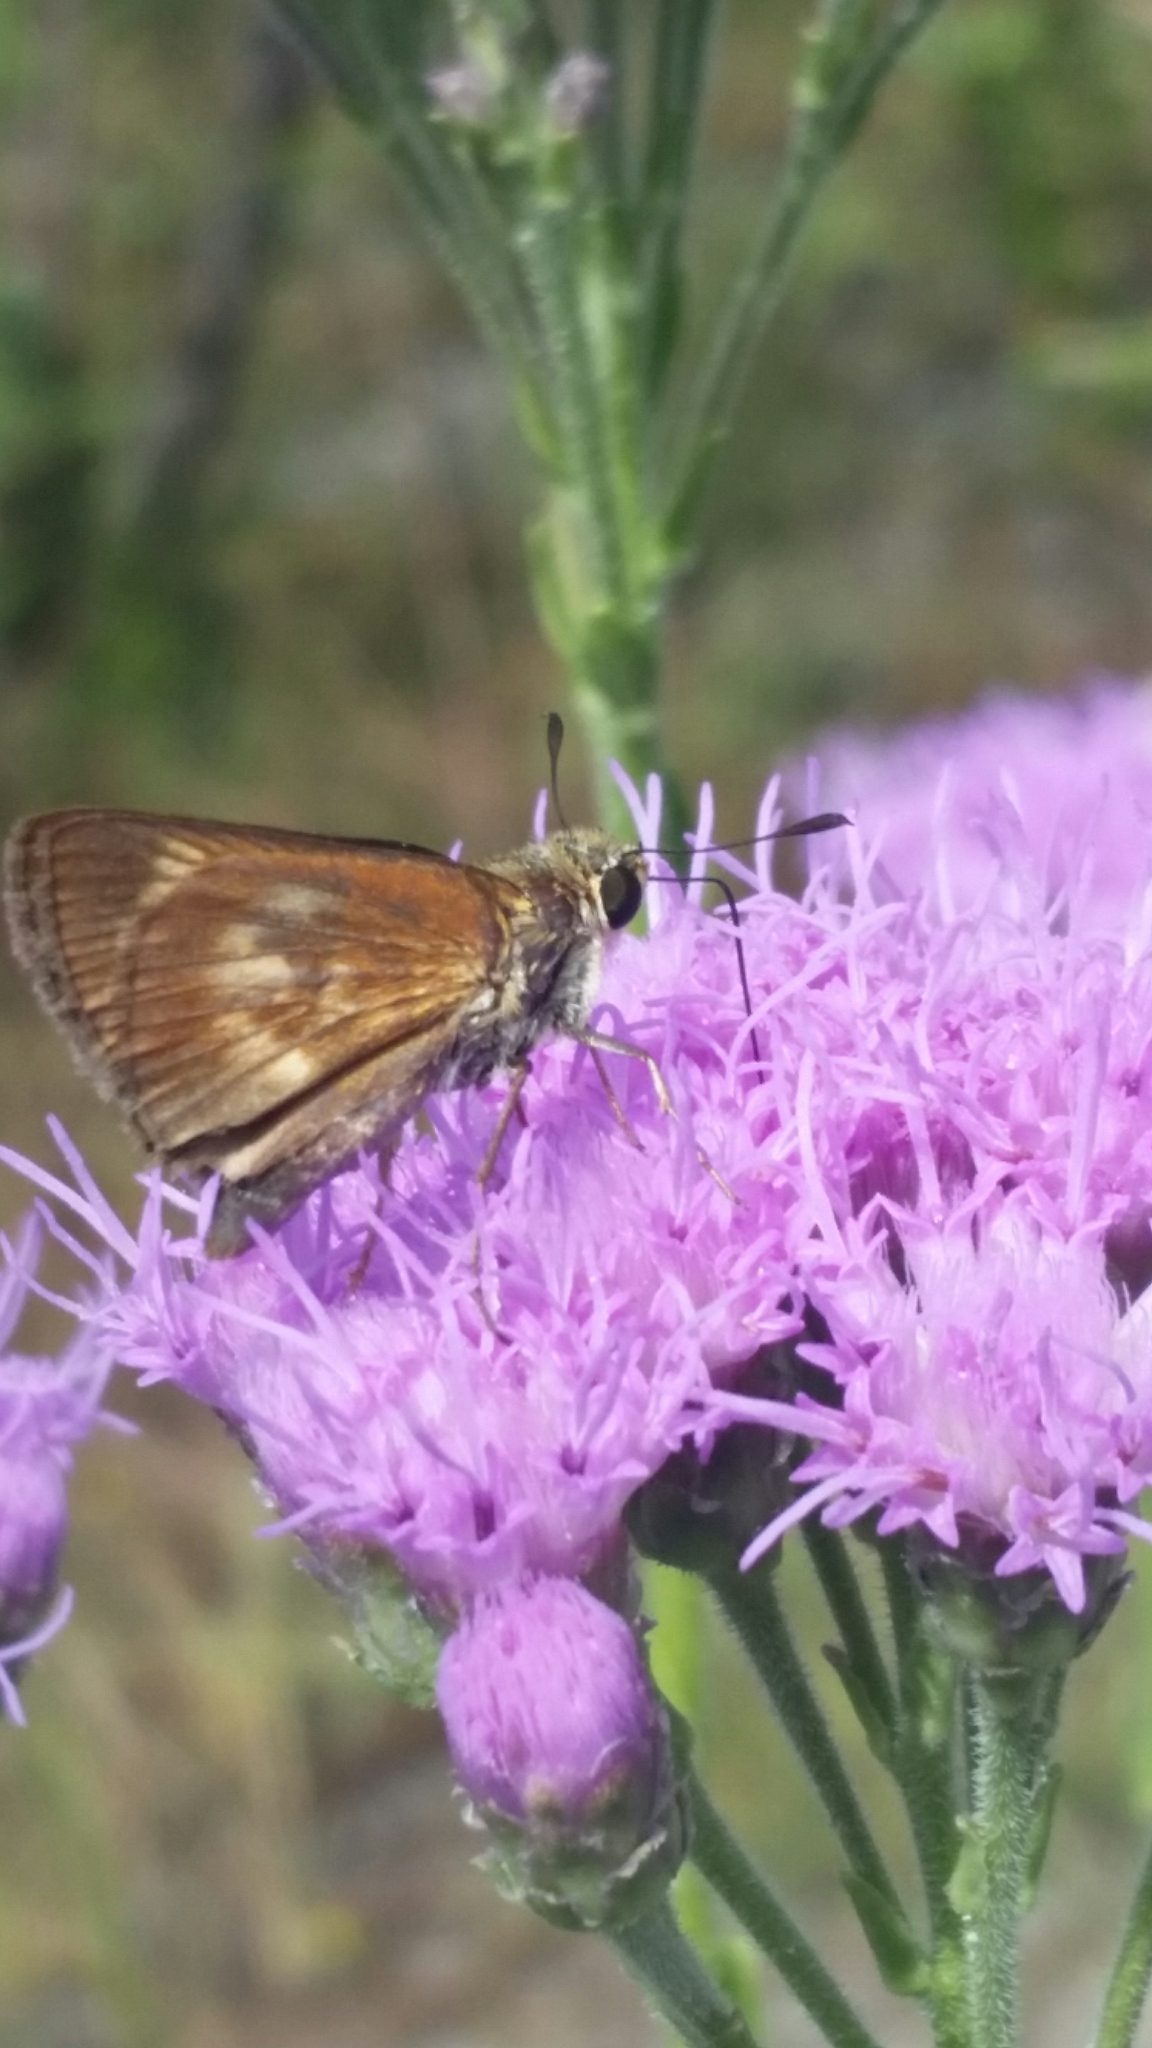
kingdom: Animalia
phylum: Arthropoda
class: Insecta
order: Lepidoptera
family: Hesperiidae
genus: Polites
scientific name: Polites egeremet
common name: Northern broken-dash
